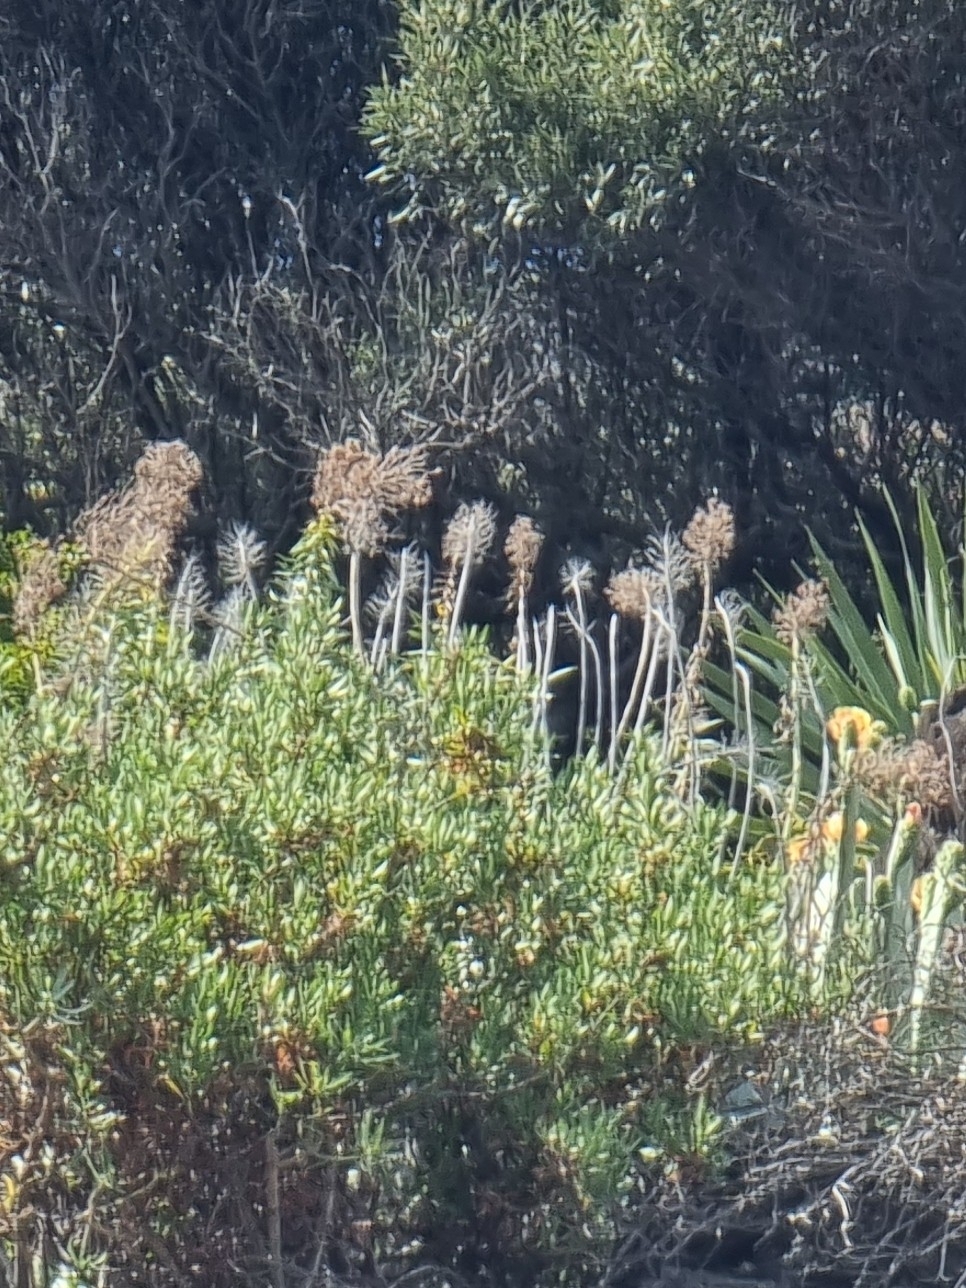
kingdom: Plantae
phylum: Tracheophyta
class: Magnoliopsida
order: Boraginales
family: Boraginaceae
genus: Echium
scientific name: Echium nervosum
